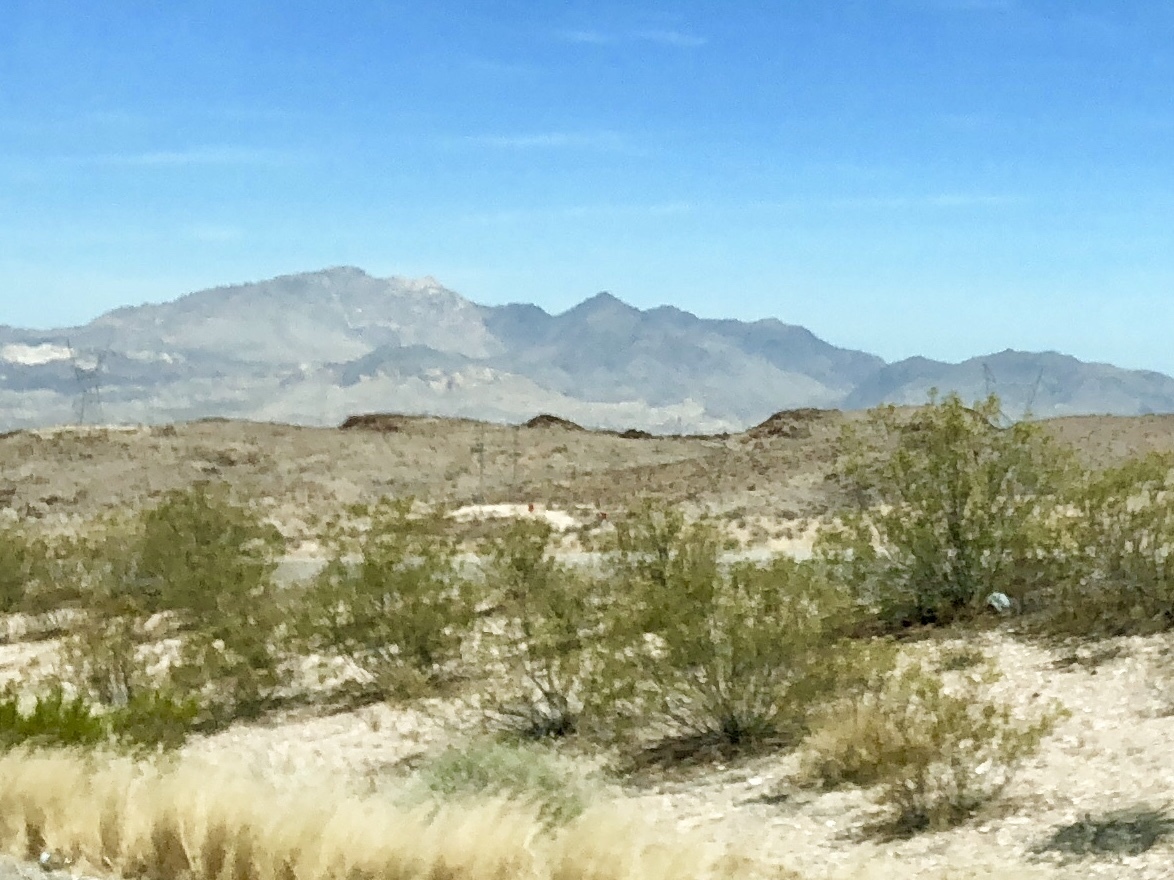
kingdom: Plantae
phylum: Tracheophyta
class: Magnoliopsida
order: Zygophyllales
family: Zygophyllaceae
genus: Larrea
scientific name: Larrea tridentata
